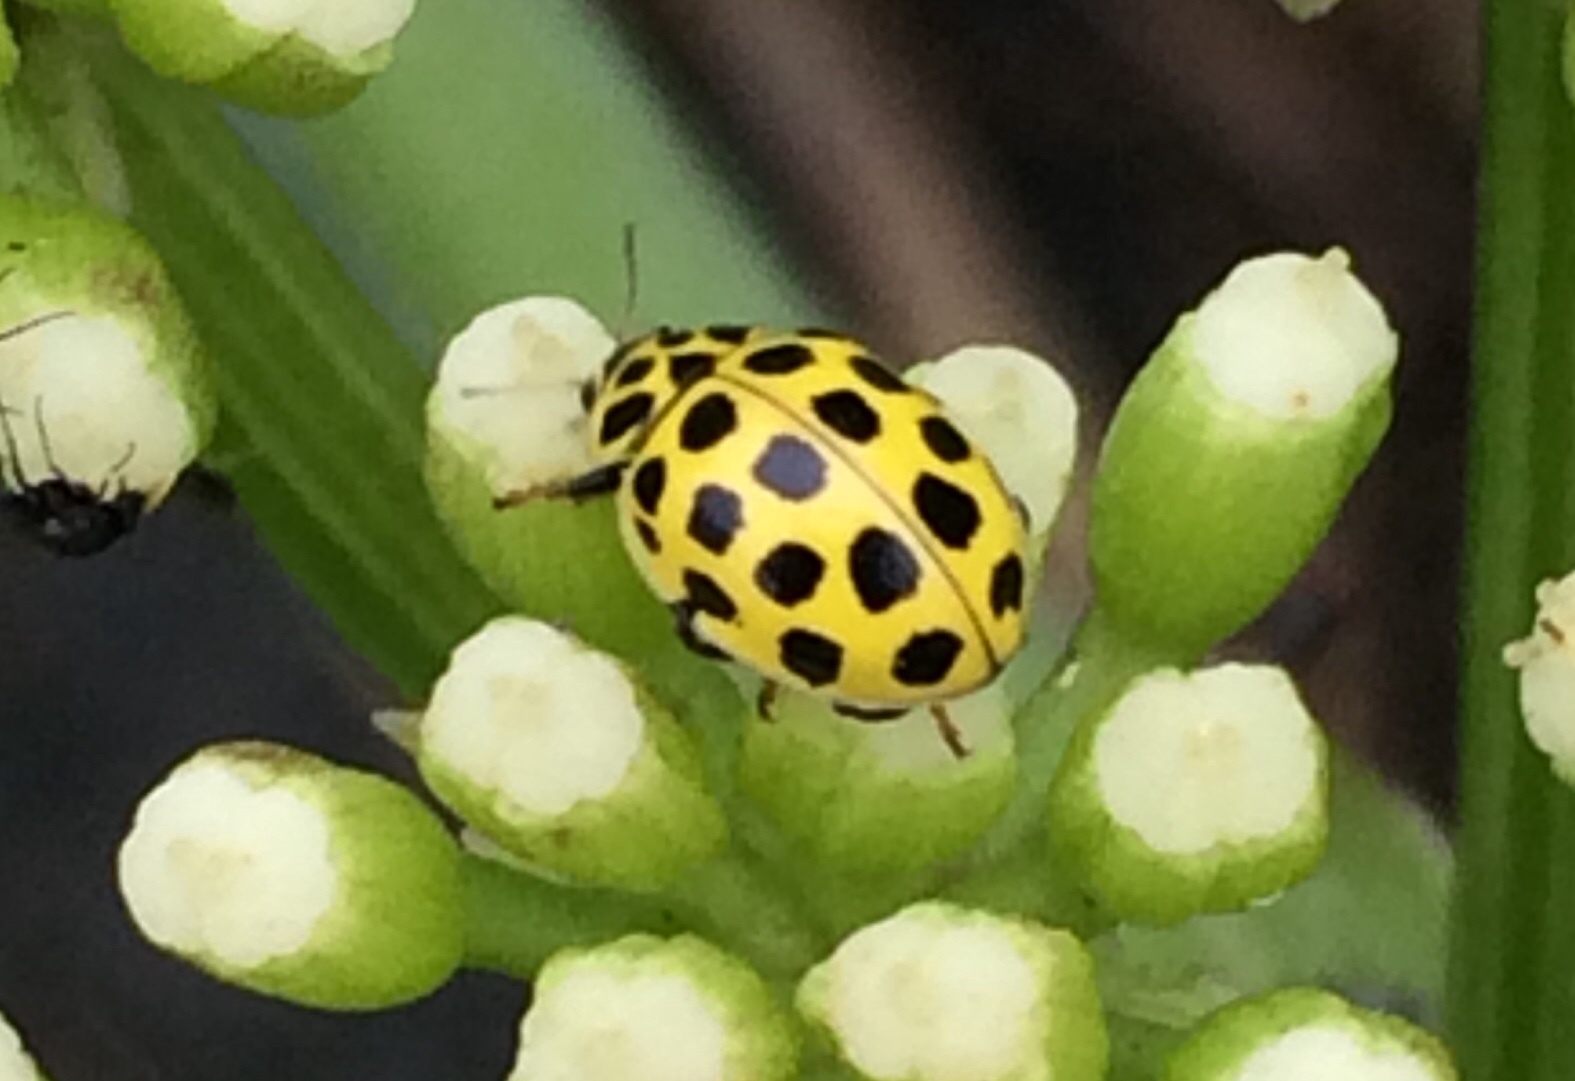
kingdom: Animalia
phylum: Arthropoda
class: Insecta
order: Coleoptera
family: Coccinellidae
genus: Psyllobora
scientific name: Psyllobora vigintiduopunctata
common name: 22-spot ladybird
